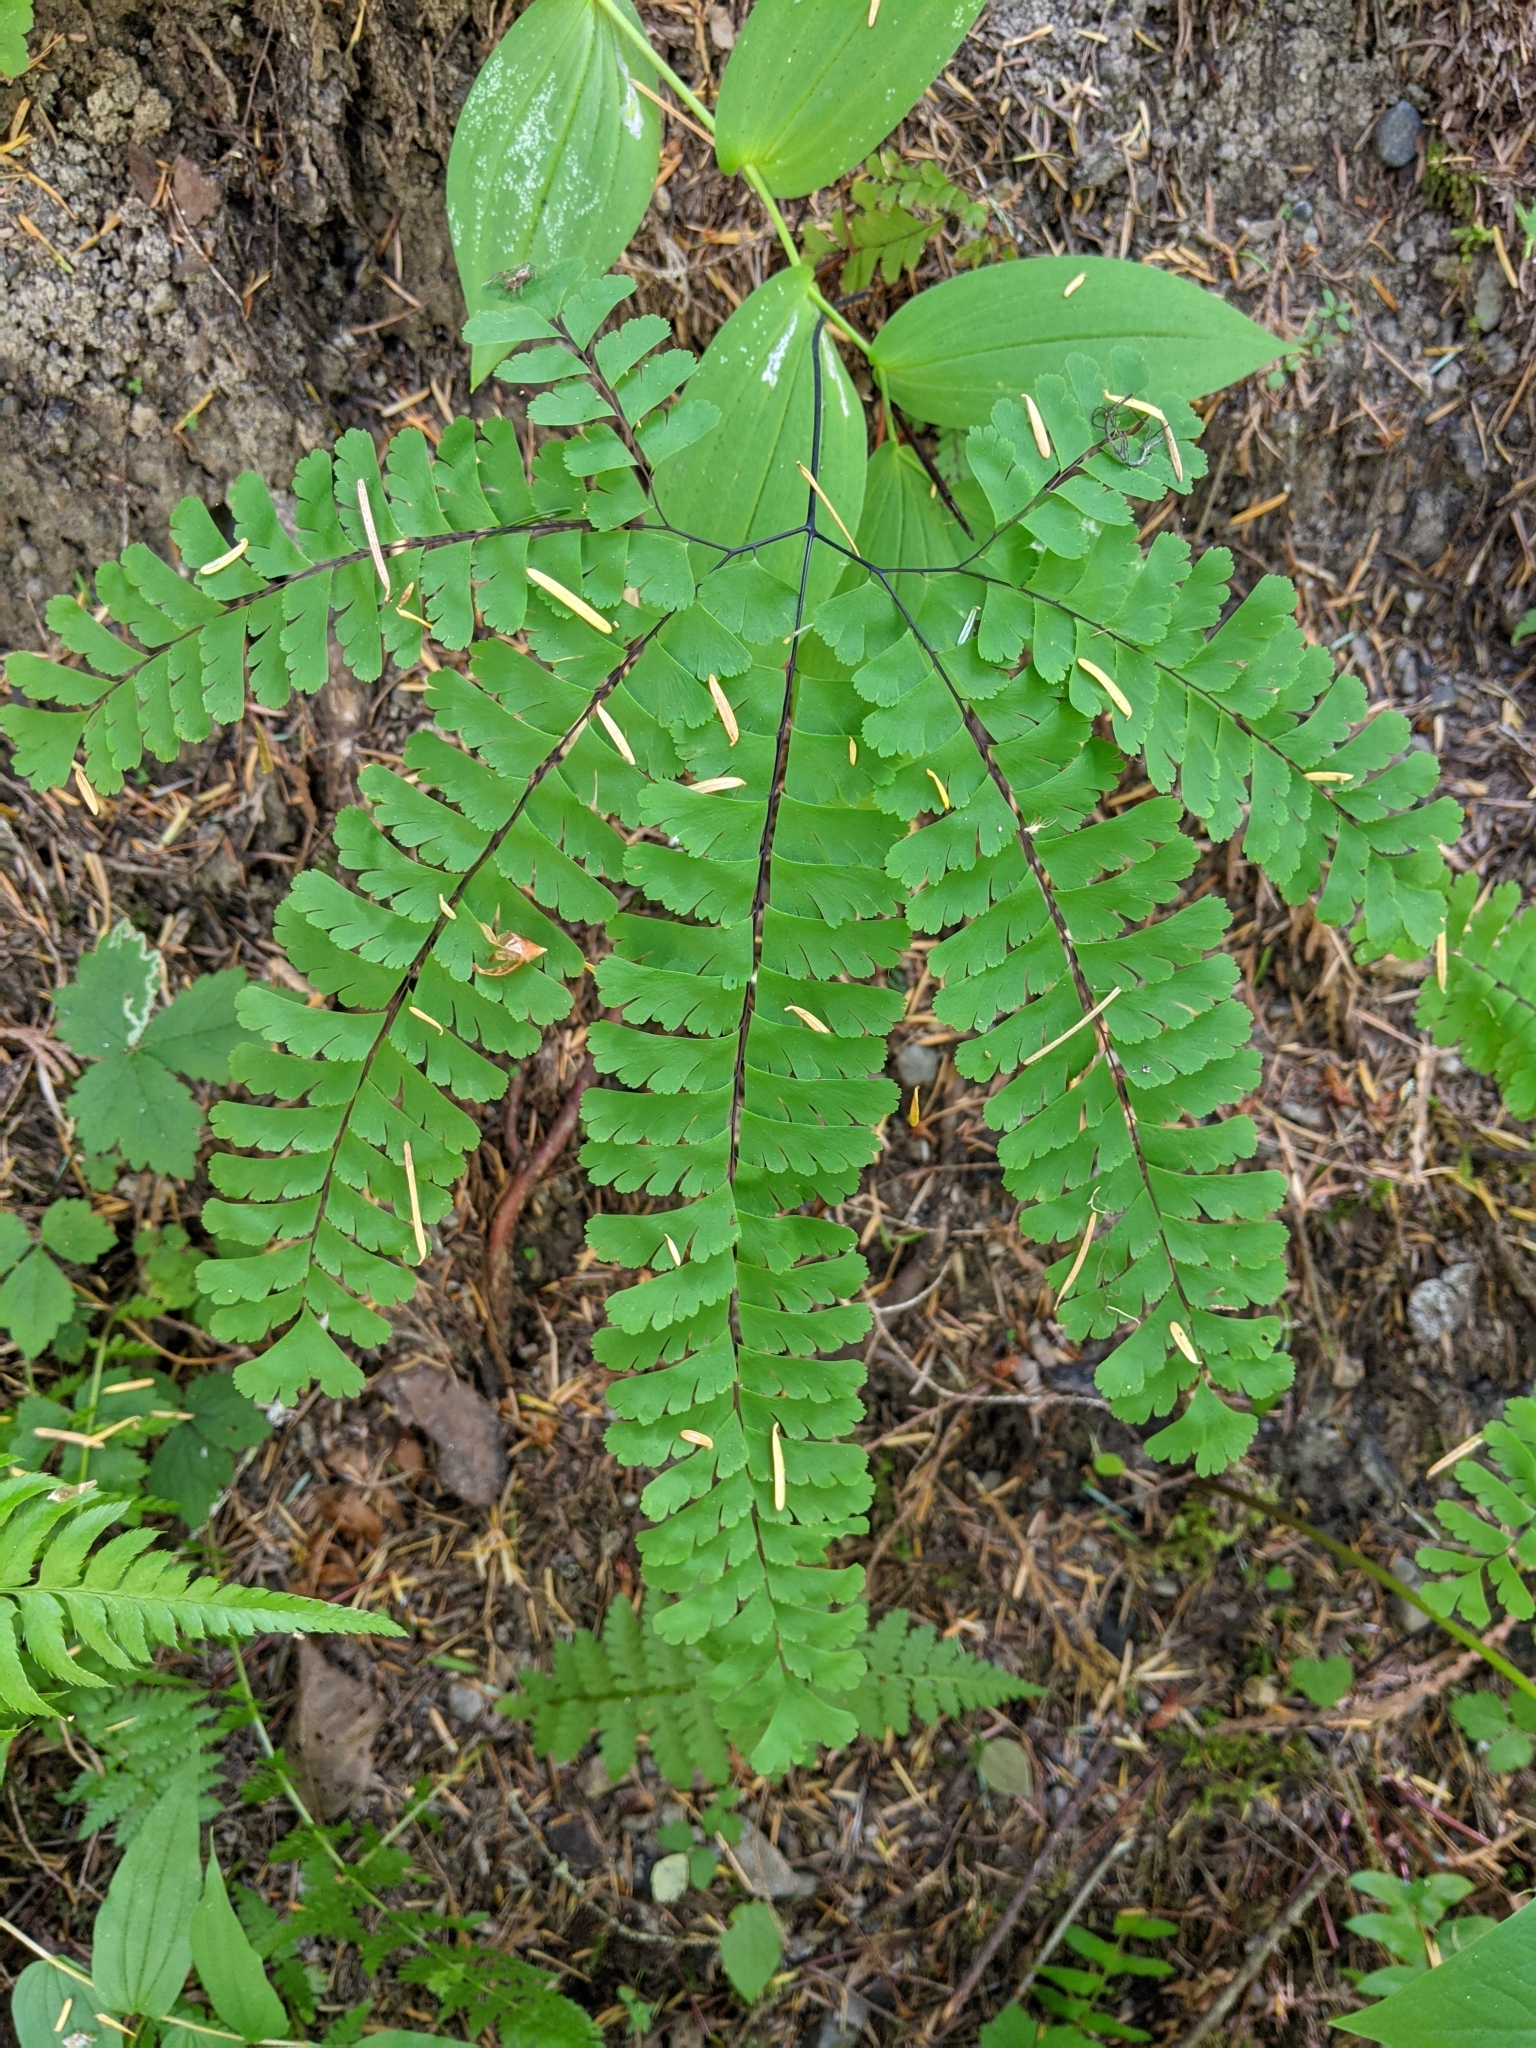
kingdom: Plantae
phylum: Tracheophyta
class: Polypodiopsida
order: Polypodiales
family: Pteridaceae
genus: Adiantum
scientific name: Adiantum aleuticum
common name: Aleutian maidenhair fern
